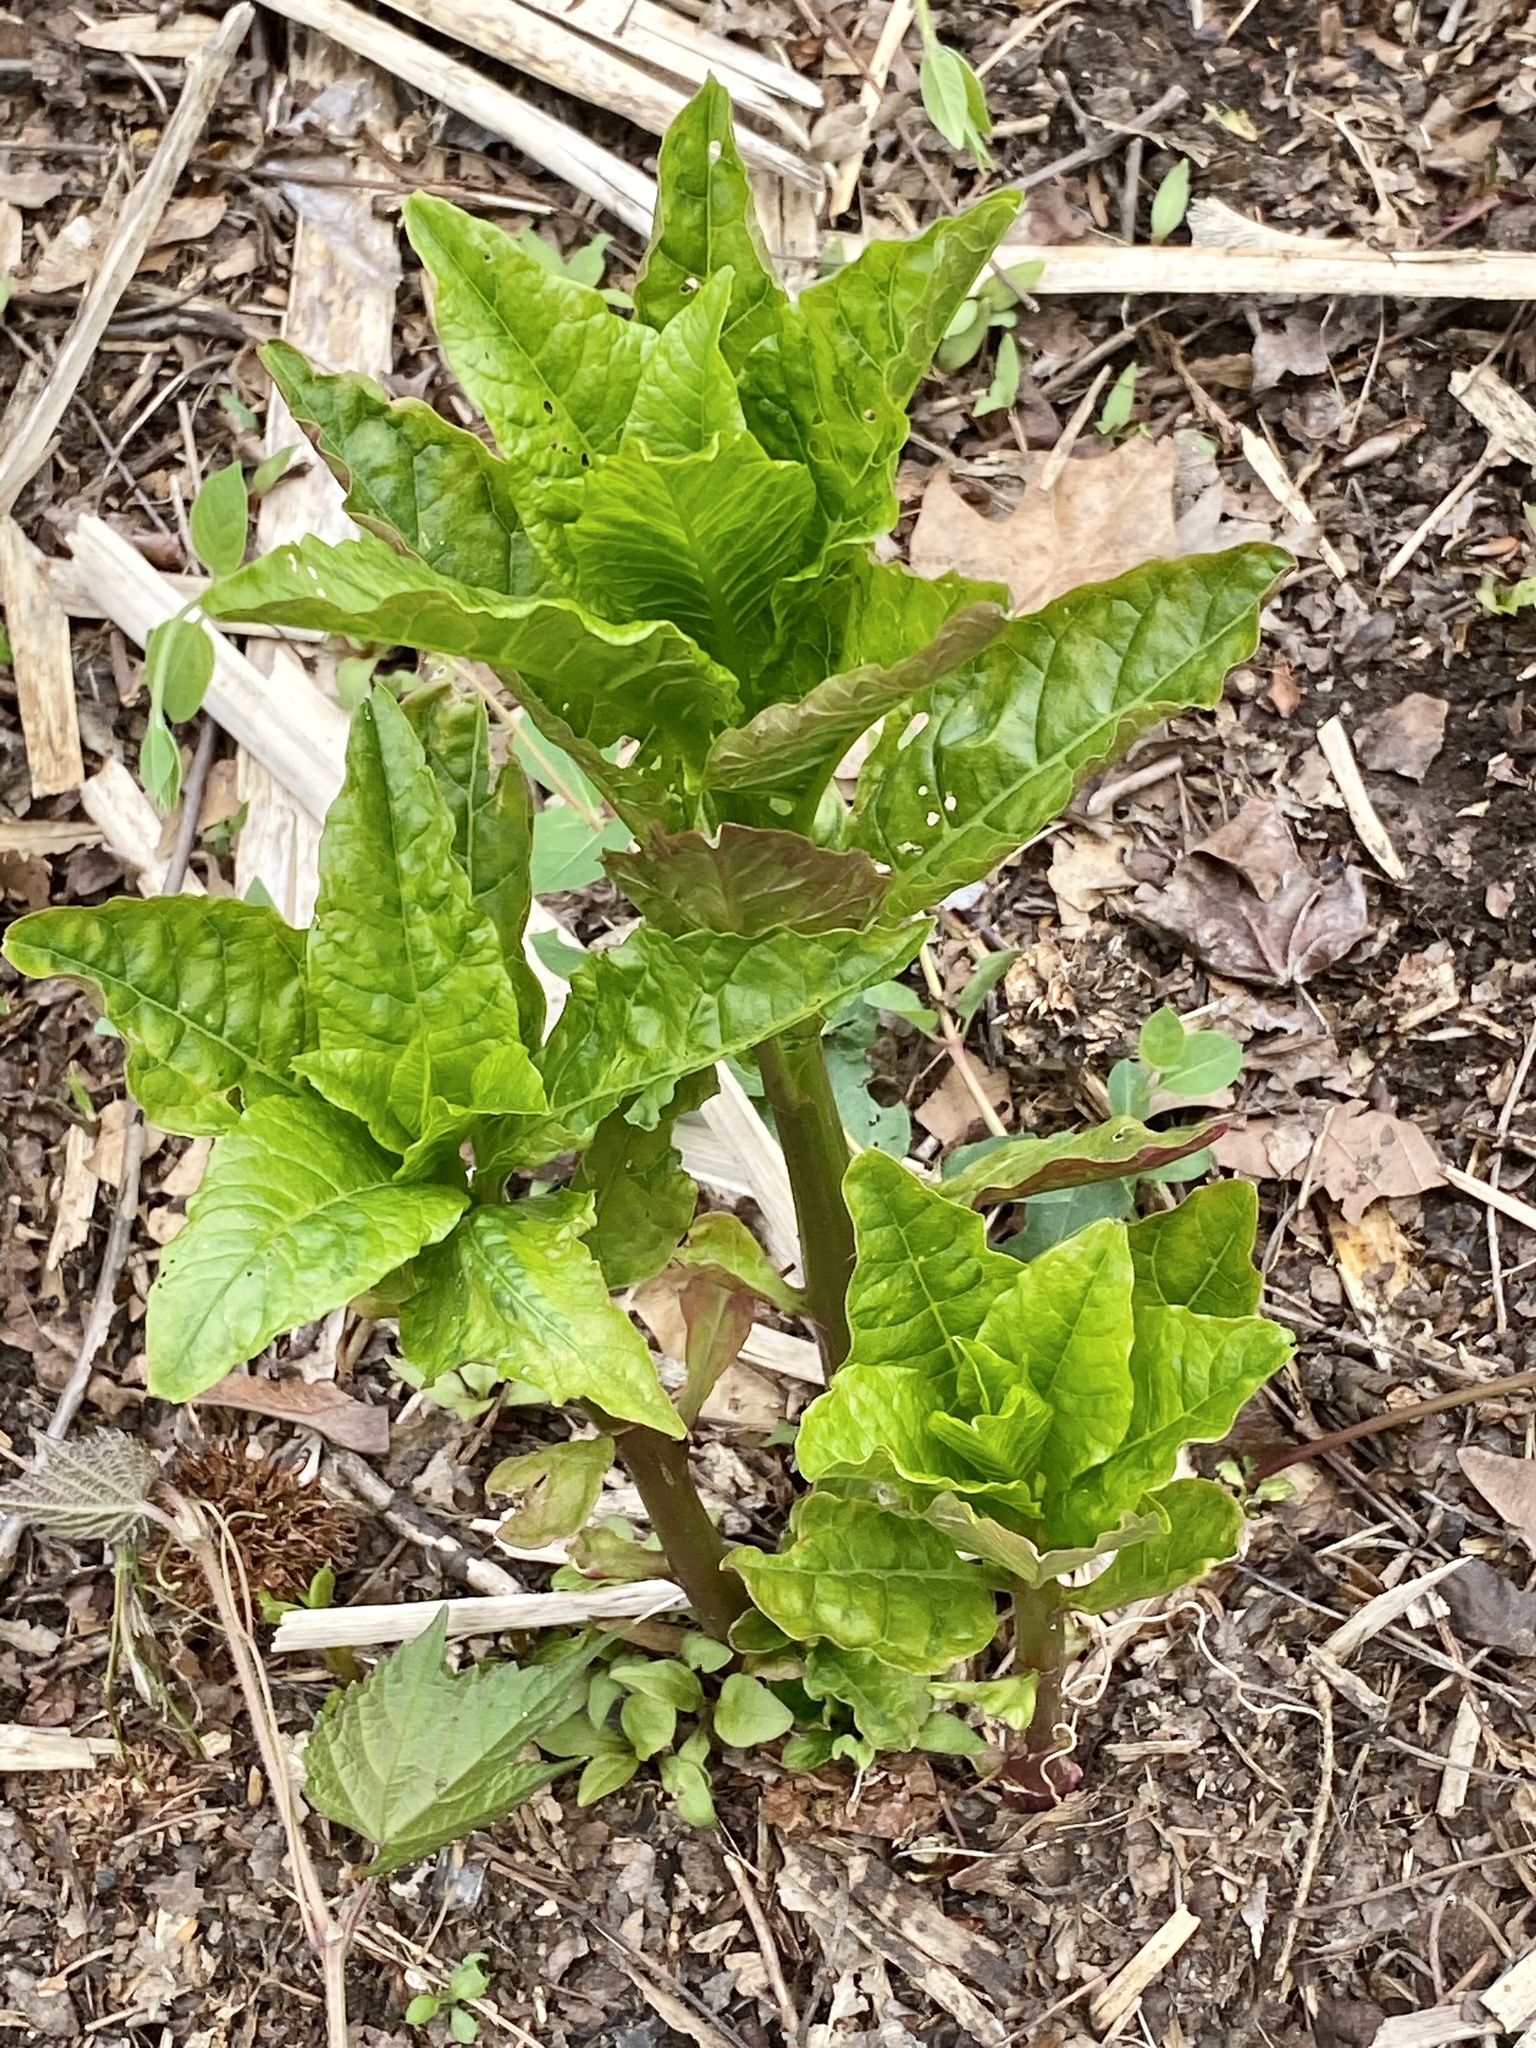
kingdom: Plantae
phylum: Tracheophyta
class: Magnoliopsida
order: Caryophyllales
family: Phytolaccaceae
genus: Phytolacca
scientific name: Phytolacca americana
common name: American pokeweed
